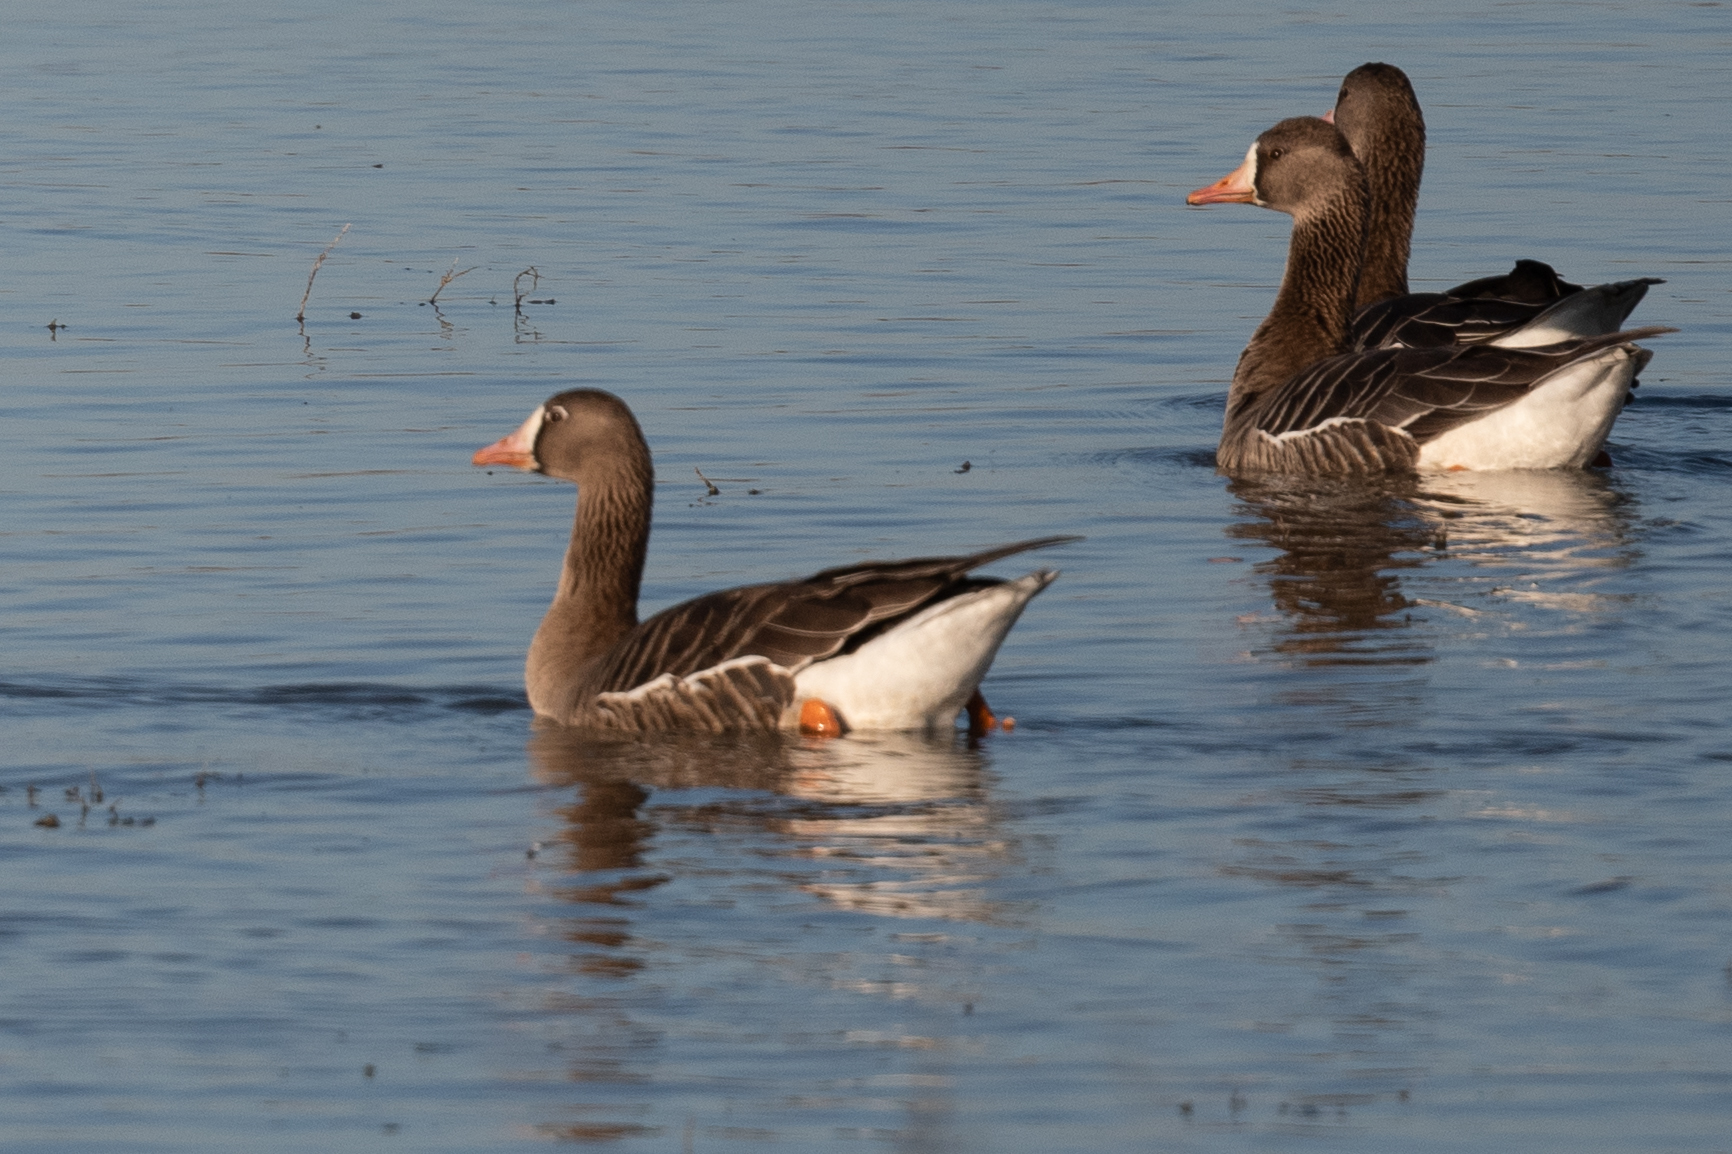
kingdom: Animalia
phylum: Chordata
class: Aves
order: Anseriformes
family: Anatidae
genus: Anser
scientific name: Anser albifrons
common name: Greater white-fronted goose
